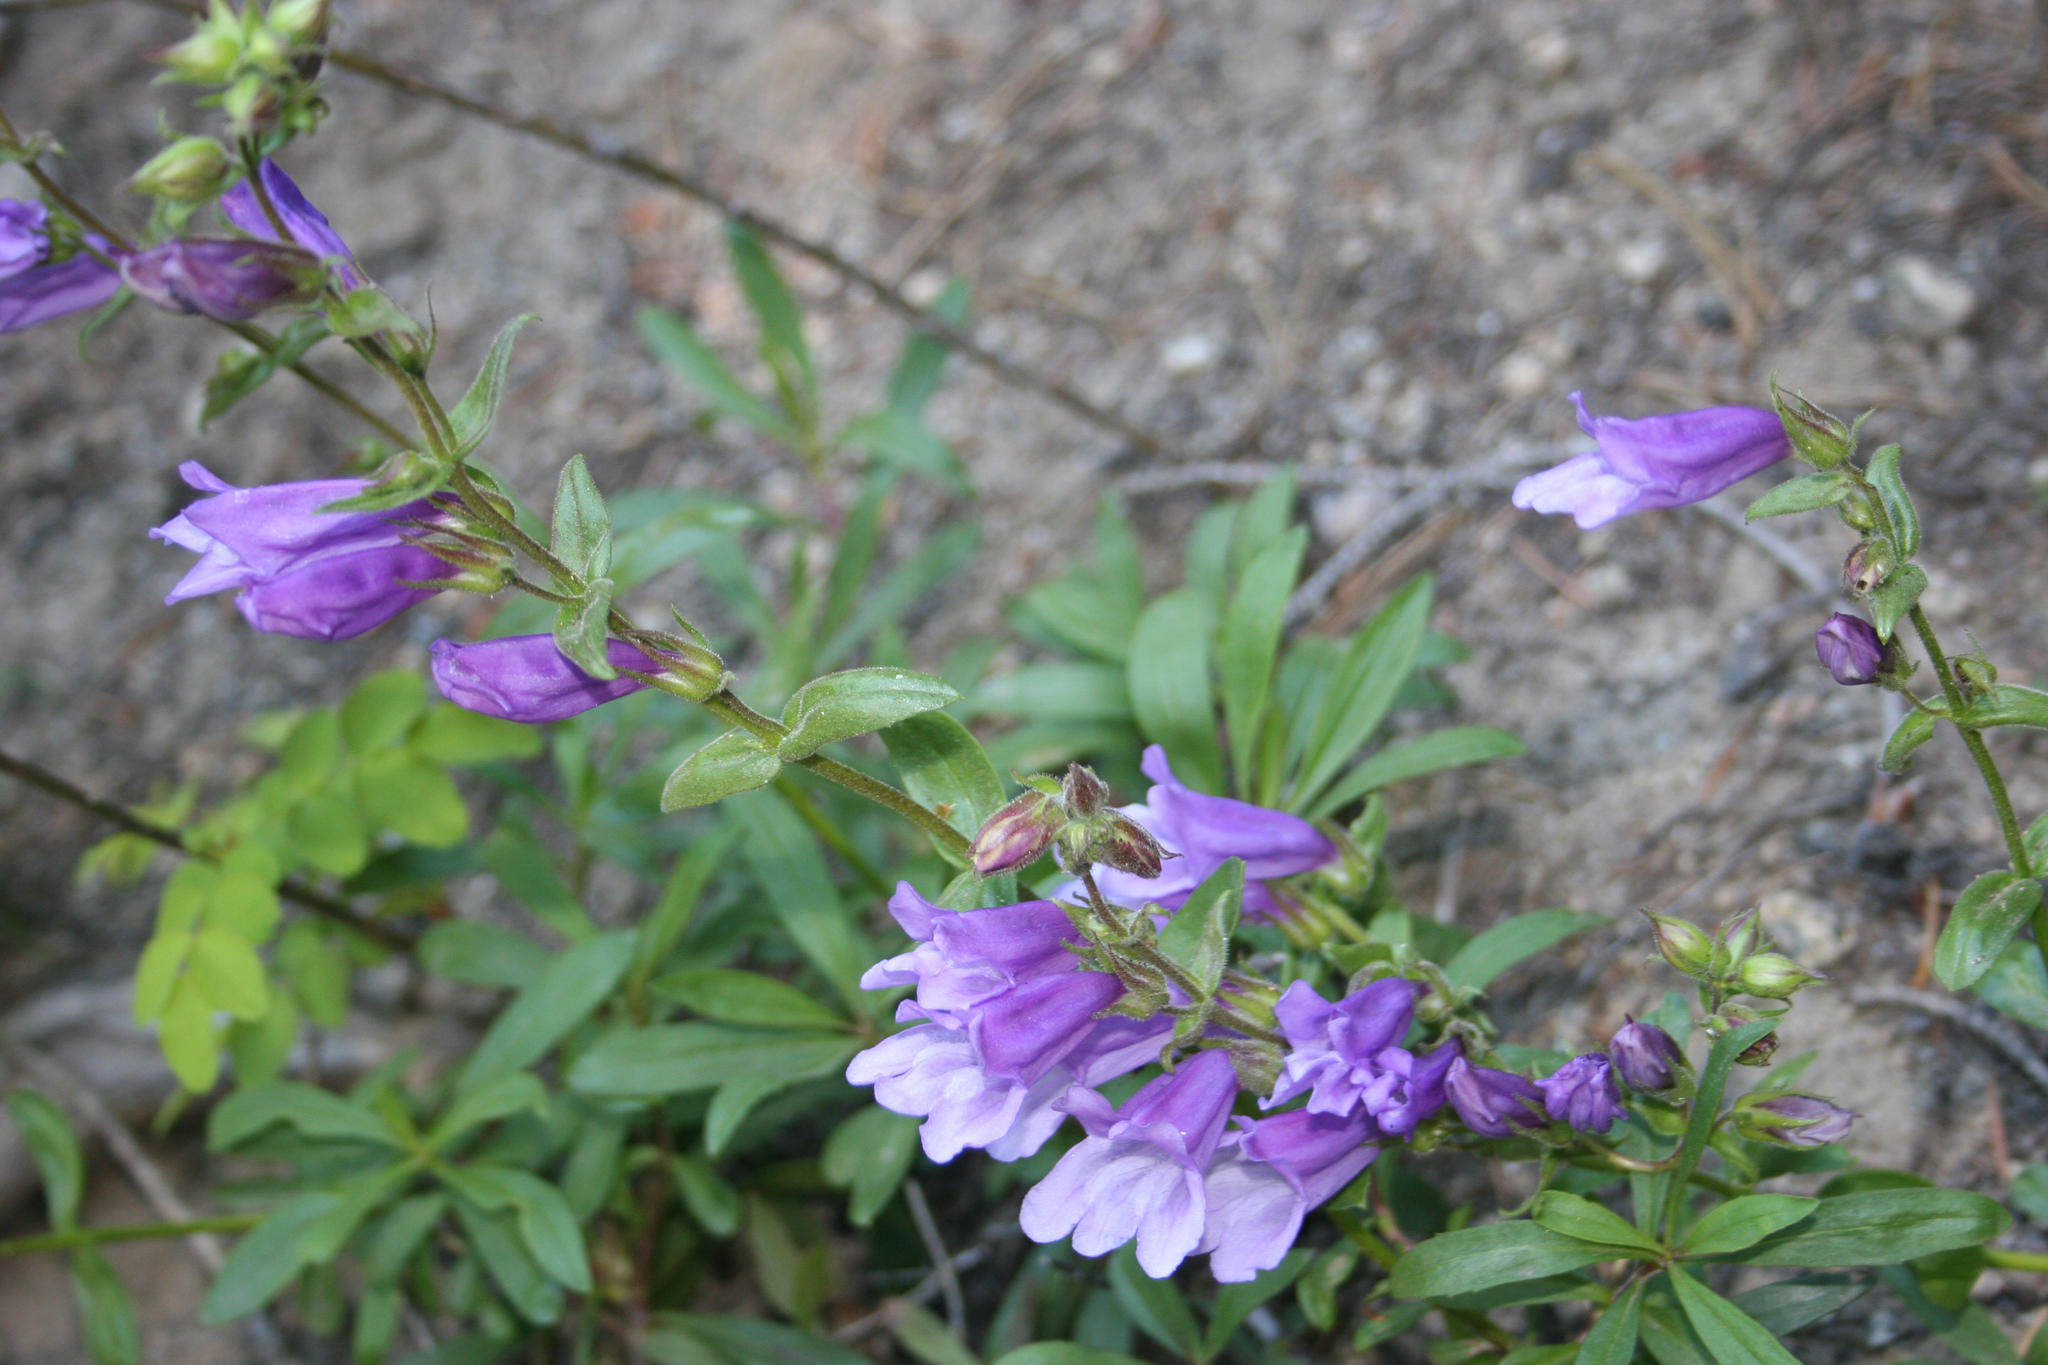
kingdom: Plantae
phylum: Tracheophyta
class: Magnoliopsida
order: Lamiales
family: Plantaginaceae
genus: Penstemon
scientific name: Penstemon fruticosus
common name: Bush penstemon
